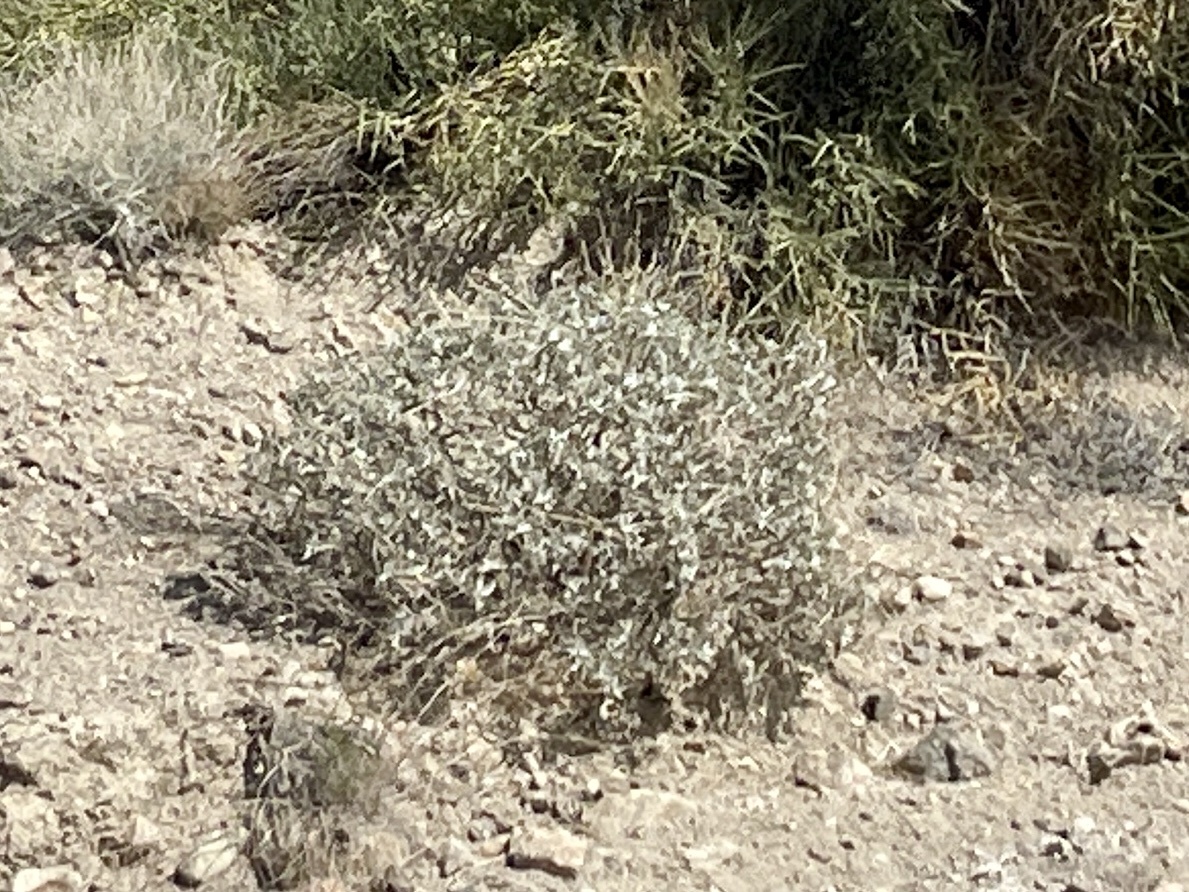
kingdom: Plantae
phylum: Tracheophyta
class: Magnoliopsida
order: Asterales
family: Asteraceae
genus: Encelia
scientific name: Encelia farinosa
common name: Brittlebush
